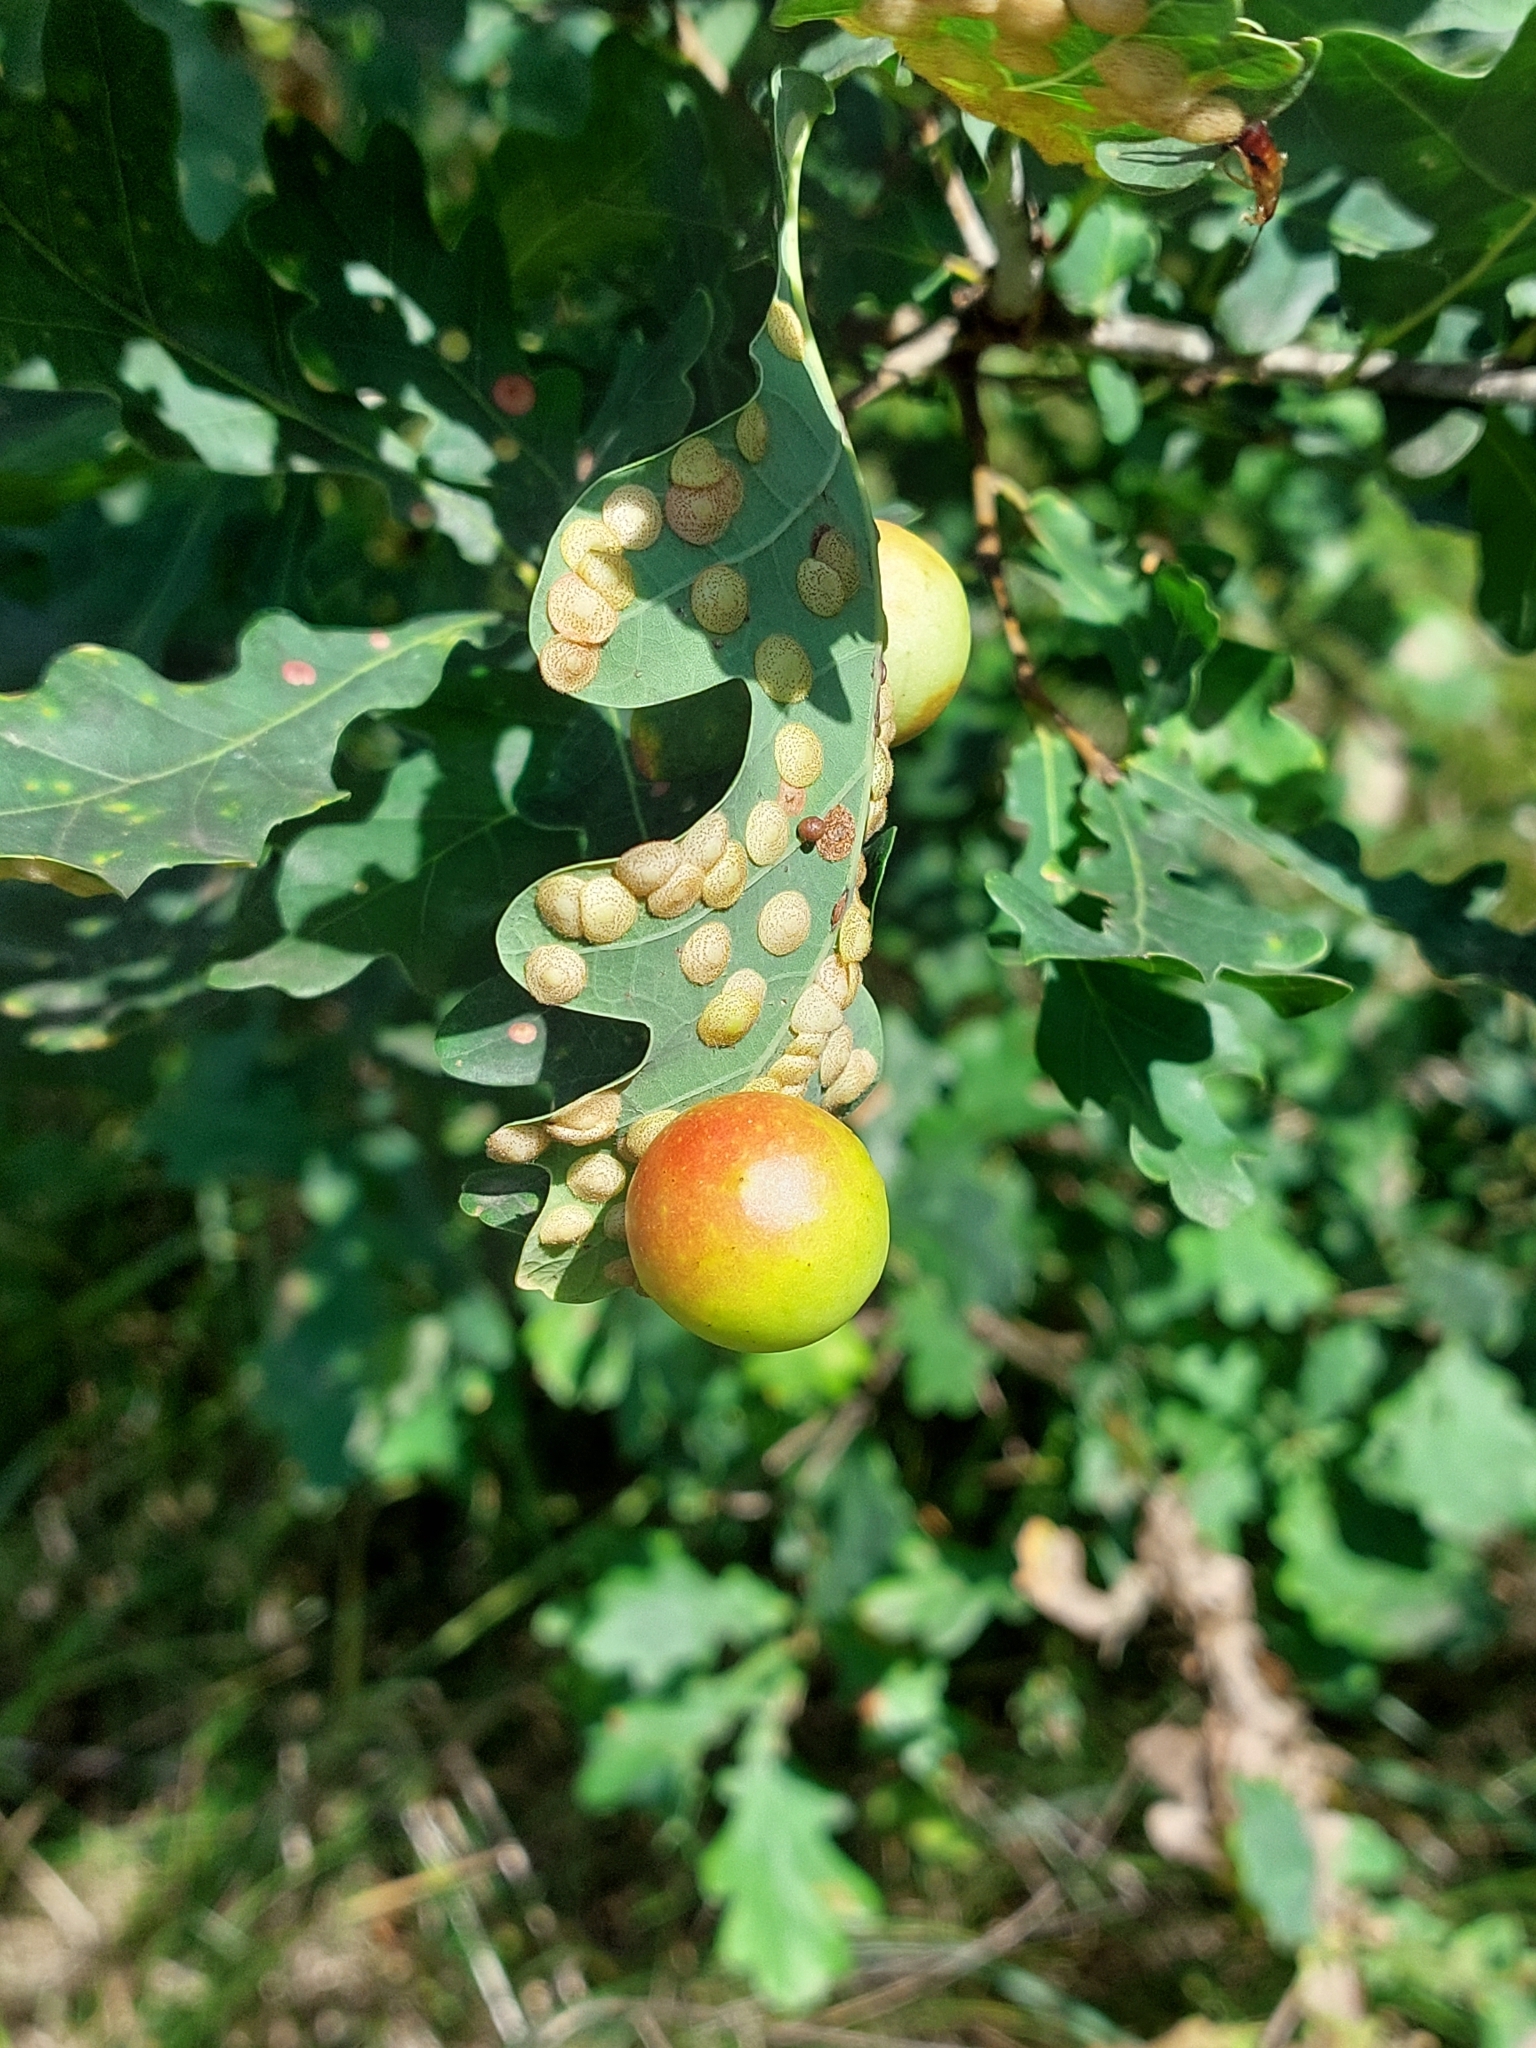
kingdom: Animalia
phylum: Arthropoda
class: Insecta
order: Hymenoptera
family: Cynipidae
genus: Cynips
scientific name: Cynips quercusfolii
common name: Cherry gall
